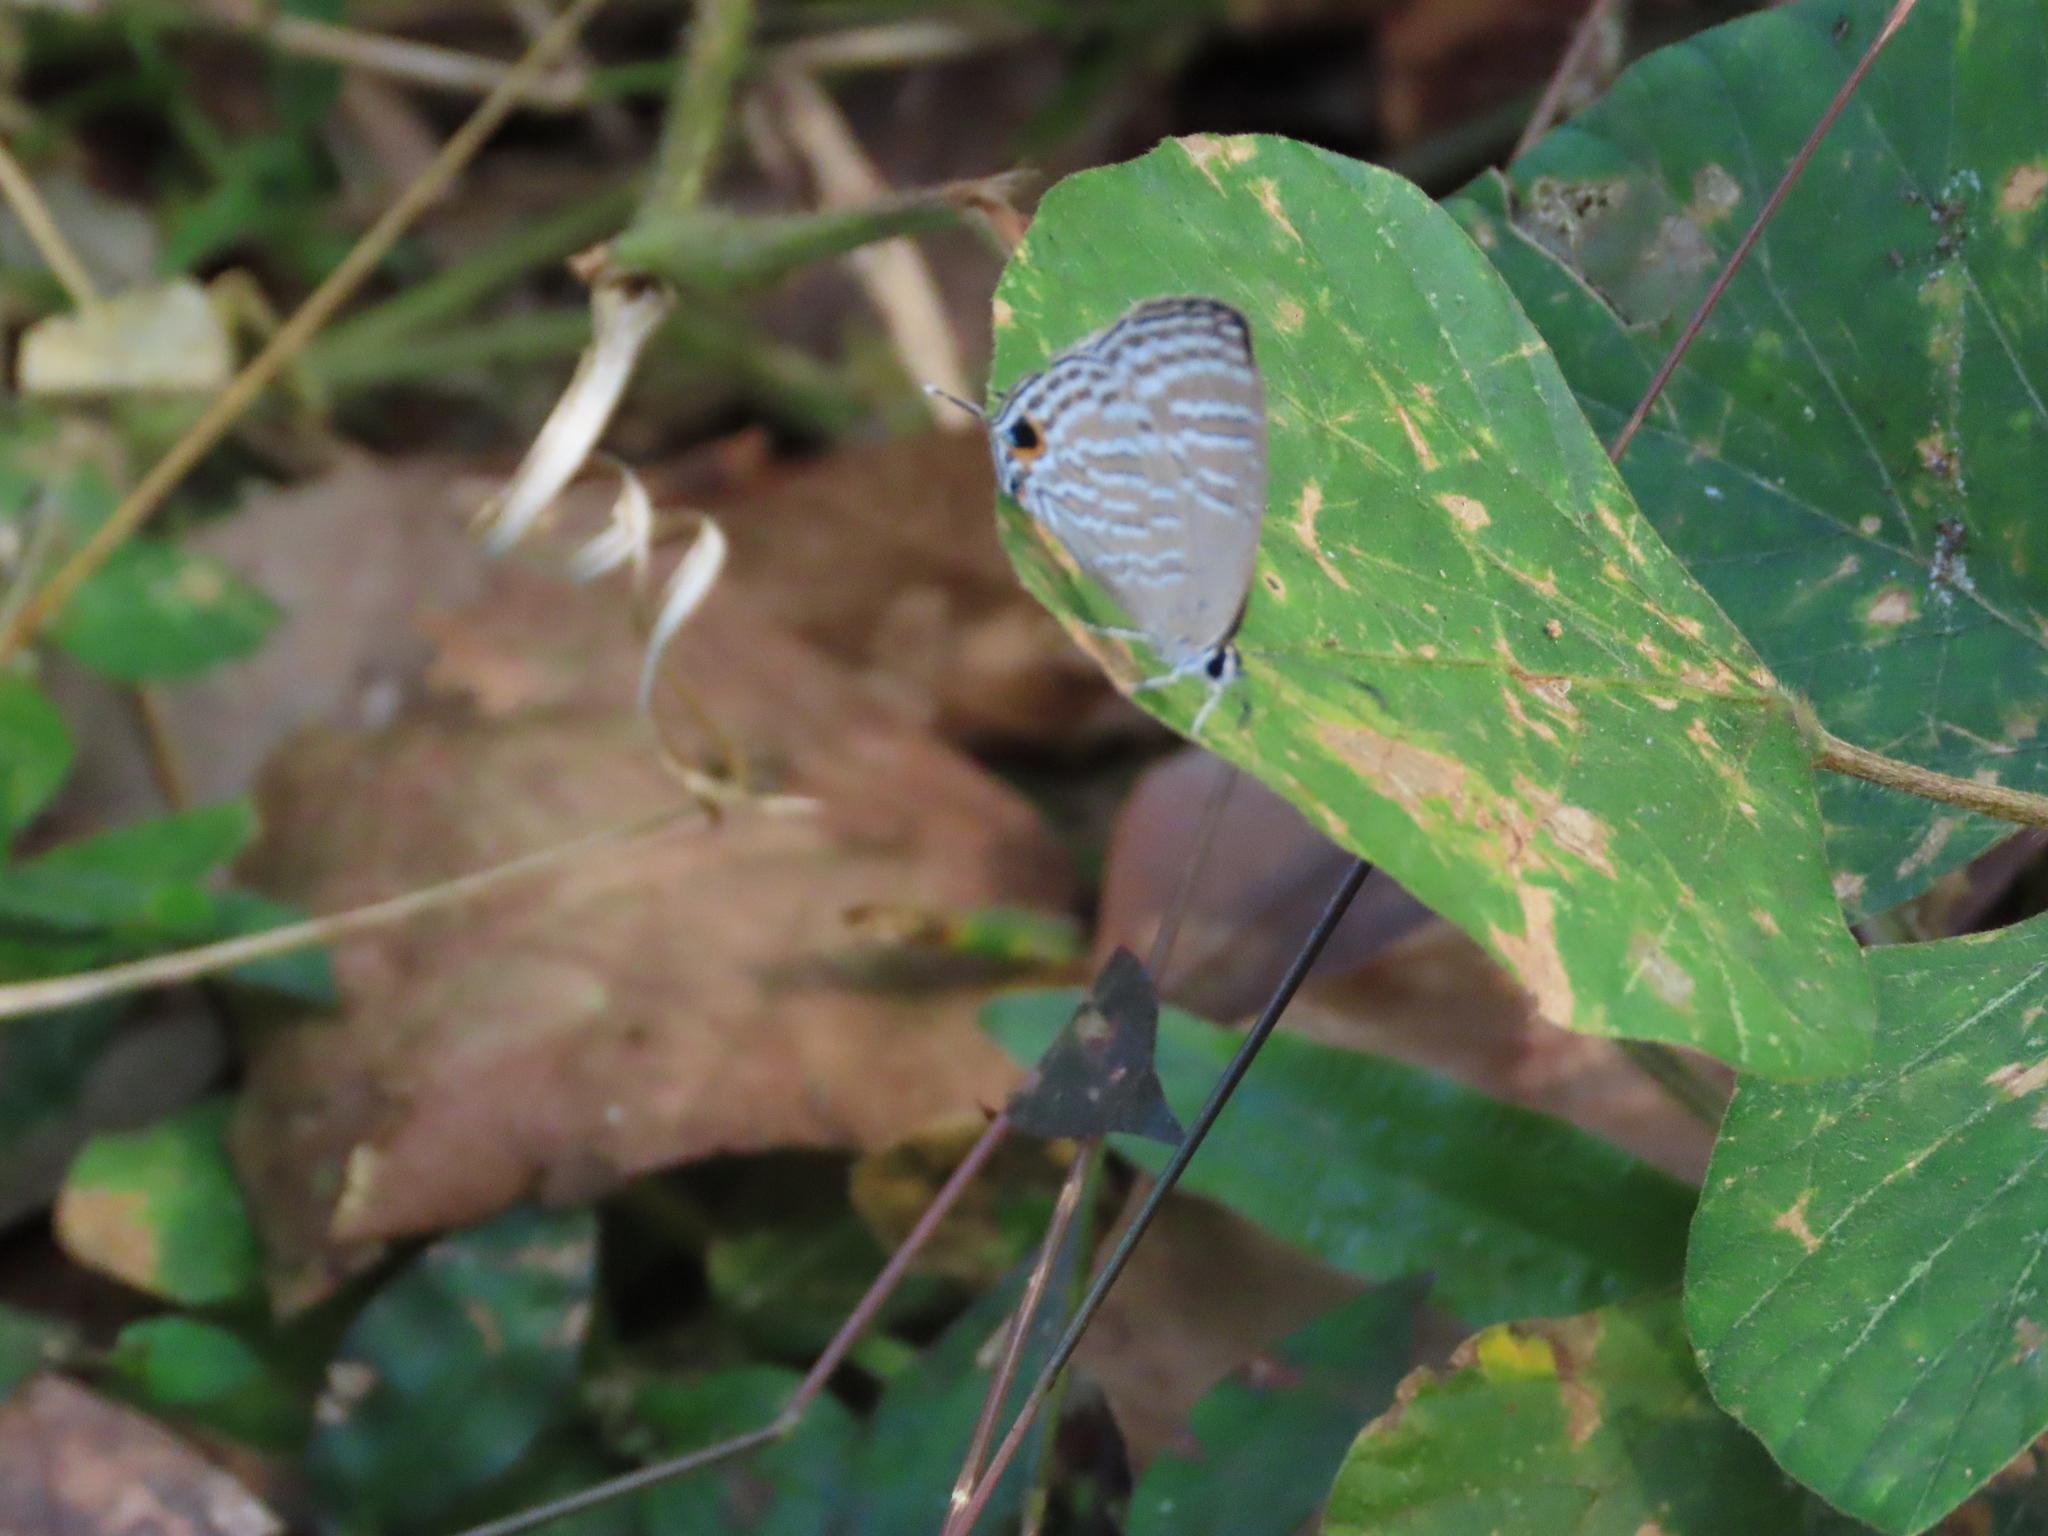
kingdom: Animalia
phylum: Arthropoda
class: Insecta
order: Lepidoptera
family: Lycaenidae
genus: Jamides
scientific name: Jamides celeno
